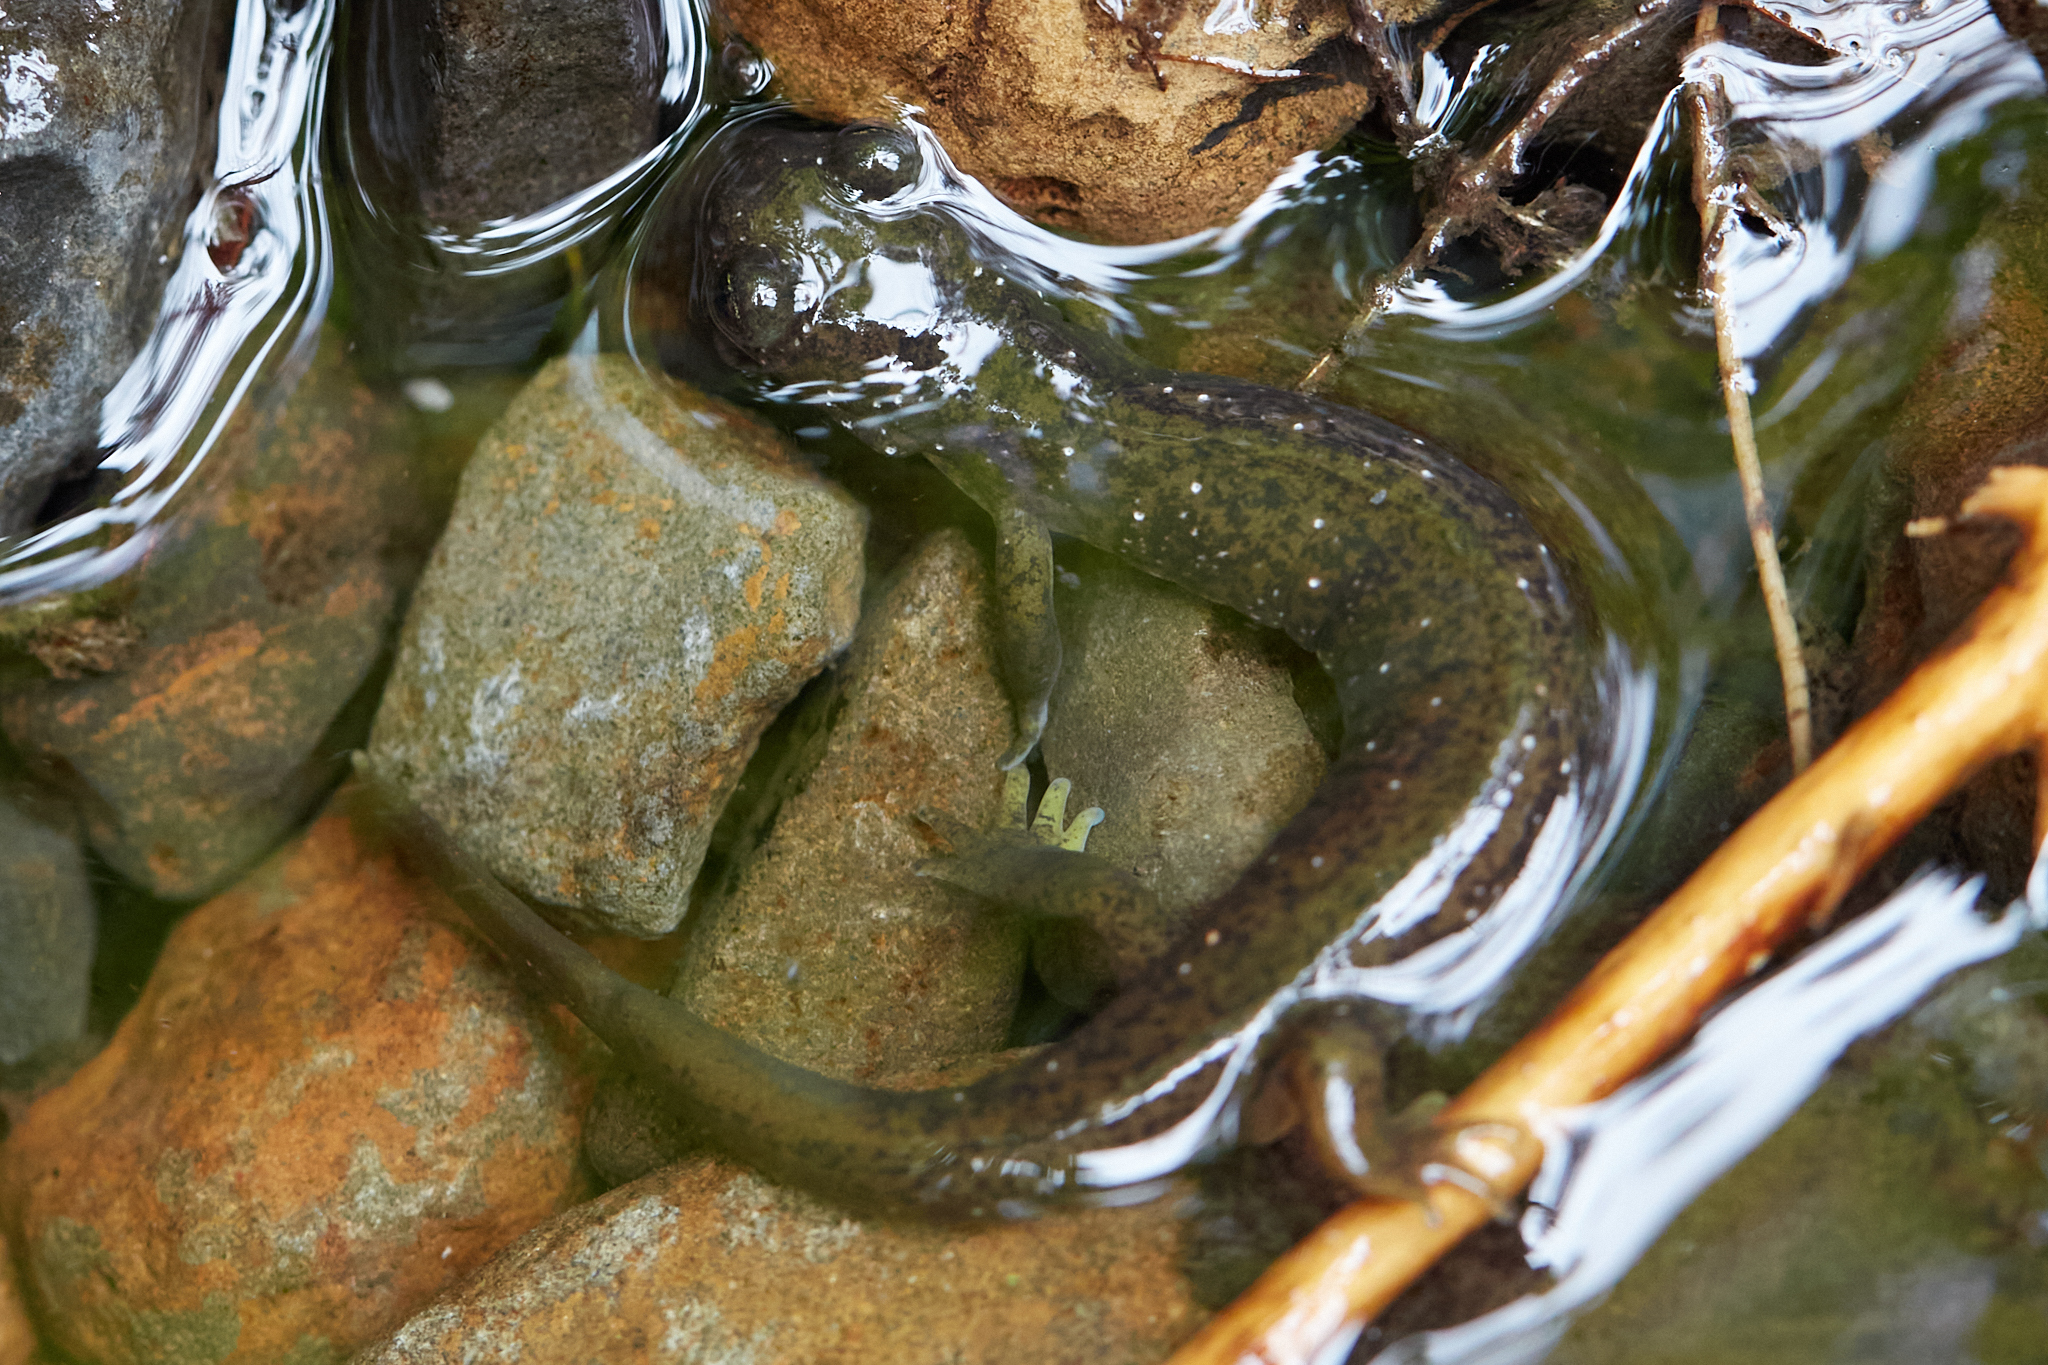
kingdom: Animalia
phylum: Chordata
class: Amphibia
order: Caudata
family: Rhyacotritonidae
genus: Rhyacotriton
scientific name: Rhyacotriton cascadae
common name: Cascade torrent salamander
